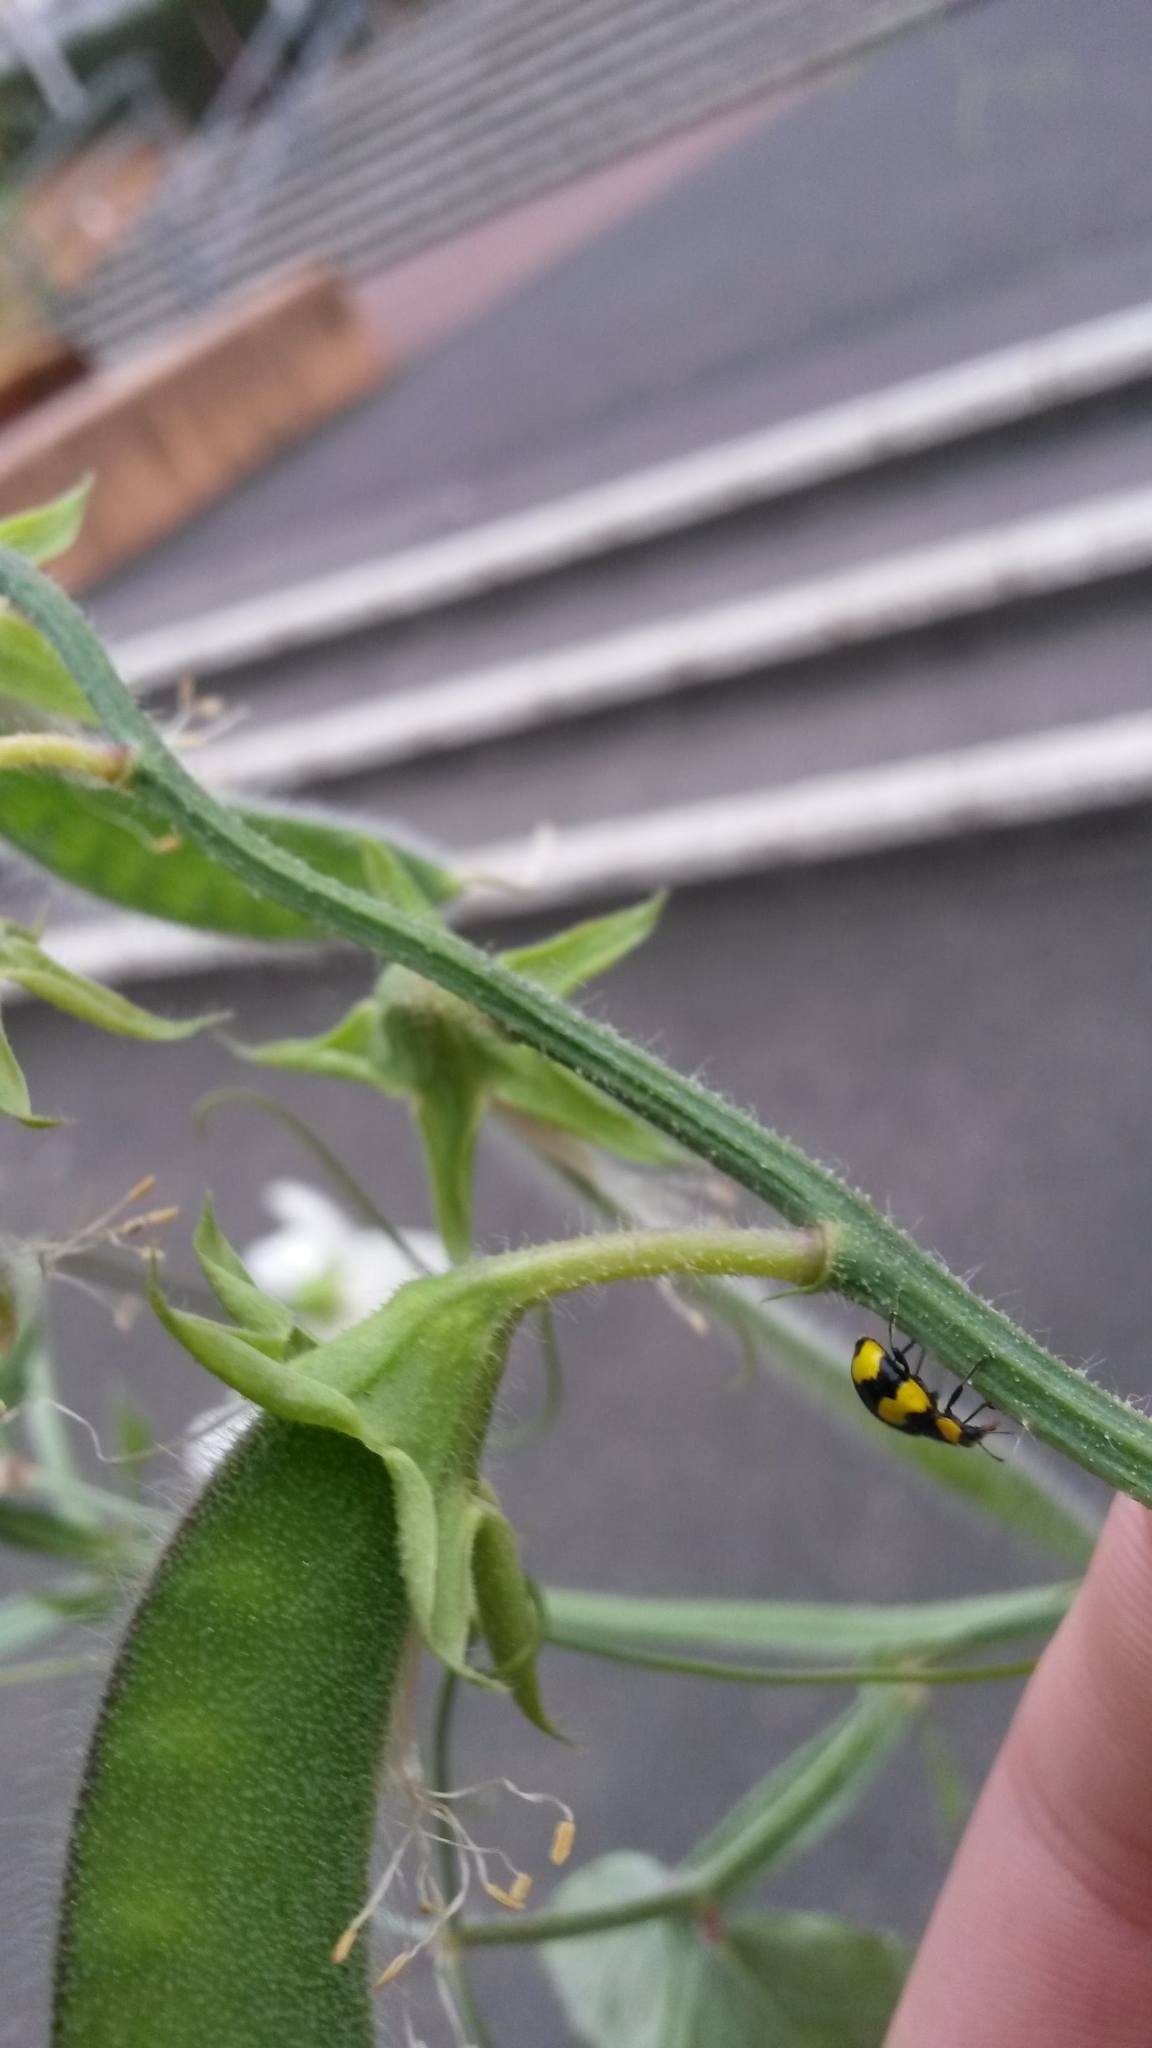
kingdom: Animalia
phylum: Arthropoda
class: Insecta
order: Coleoptera
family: Coccinellidae
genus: Illeis
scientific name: Illeis galbula
